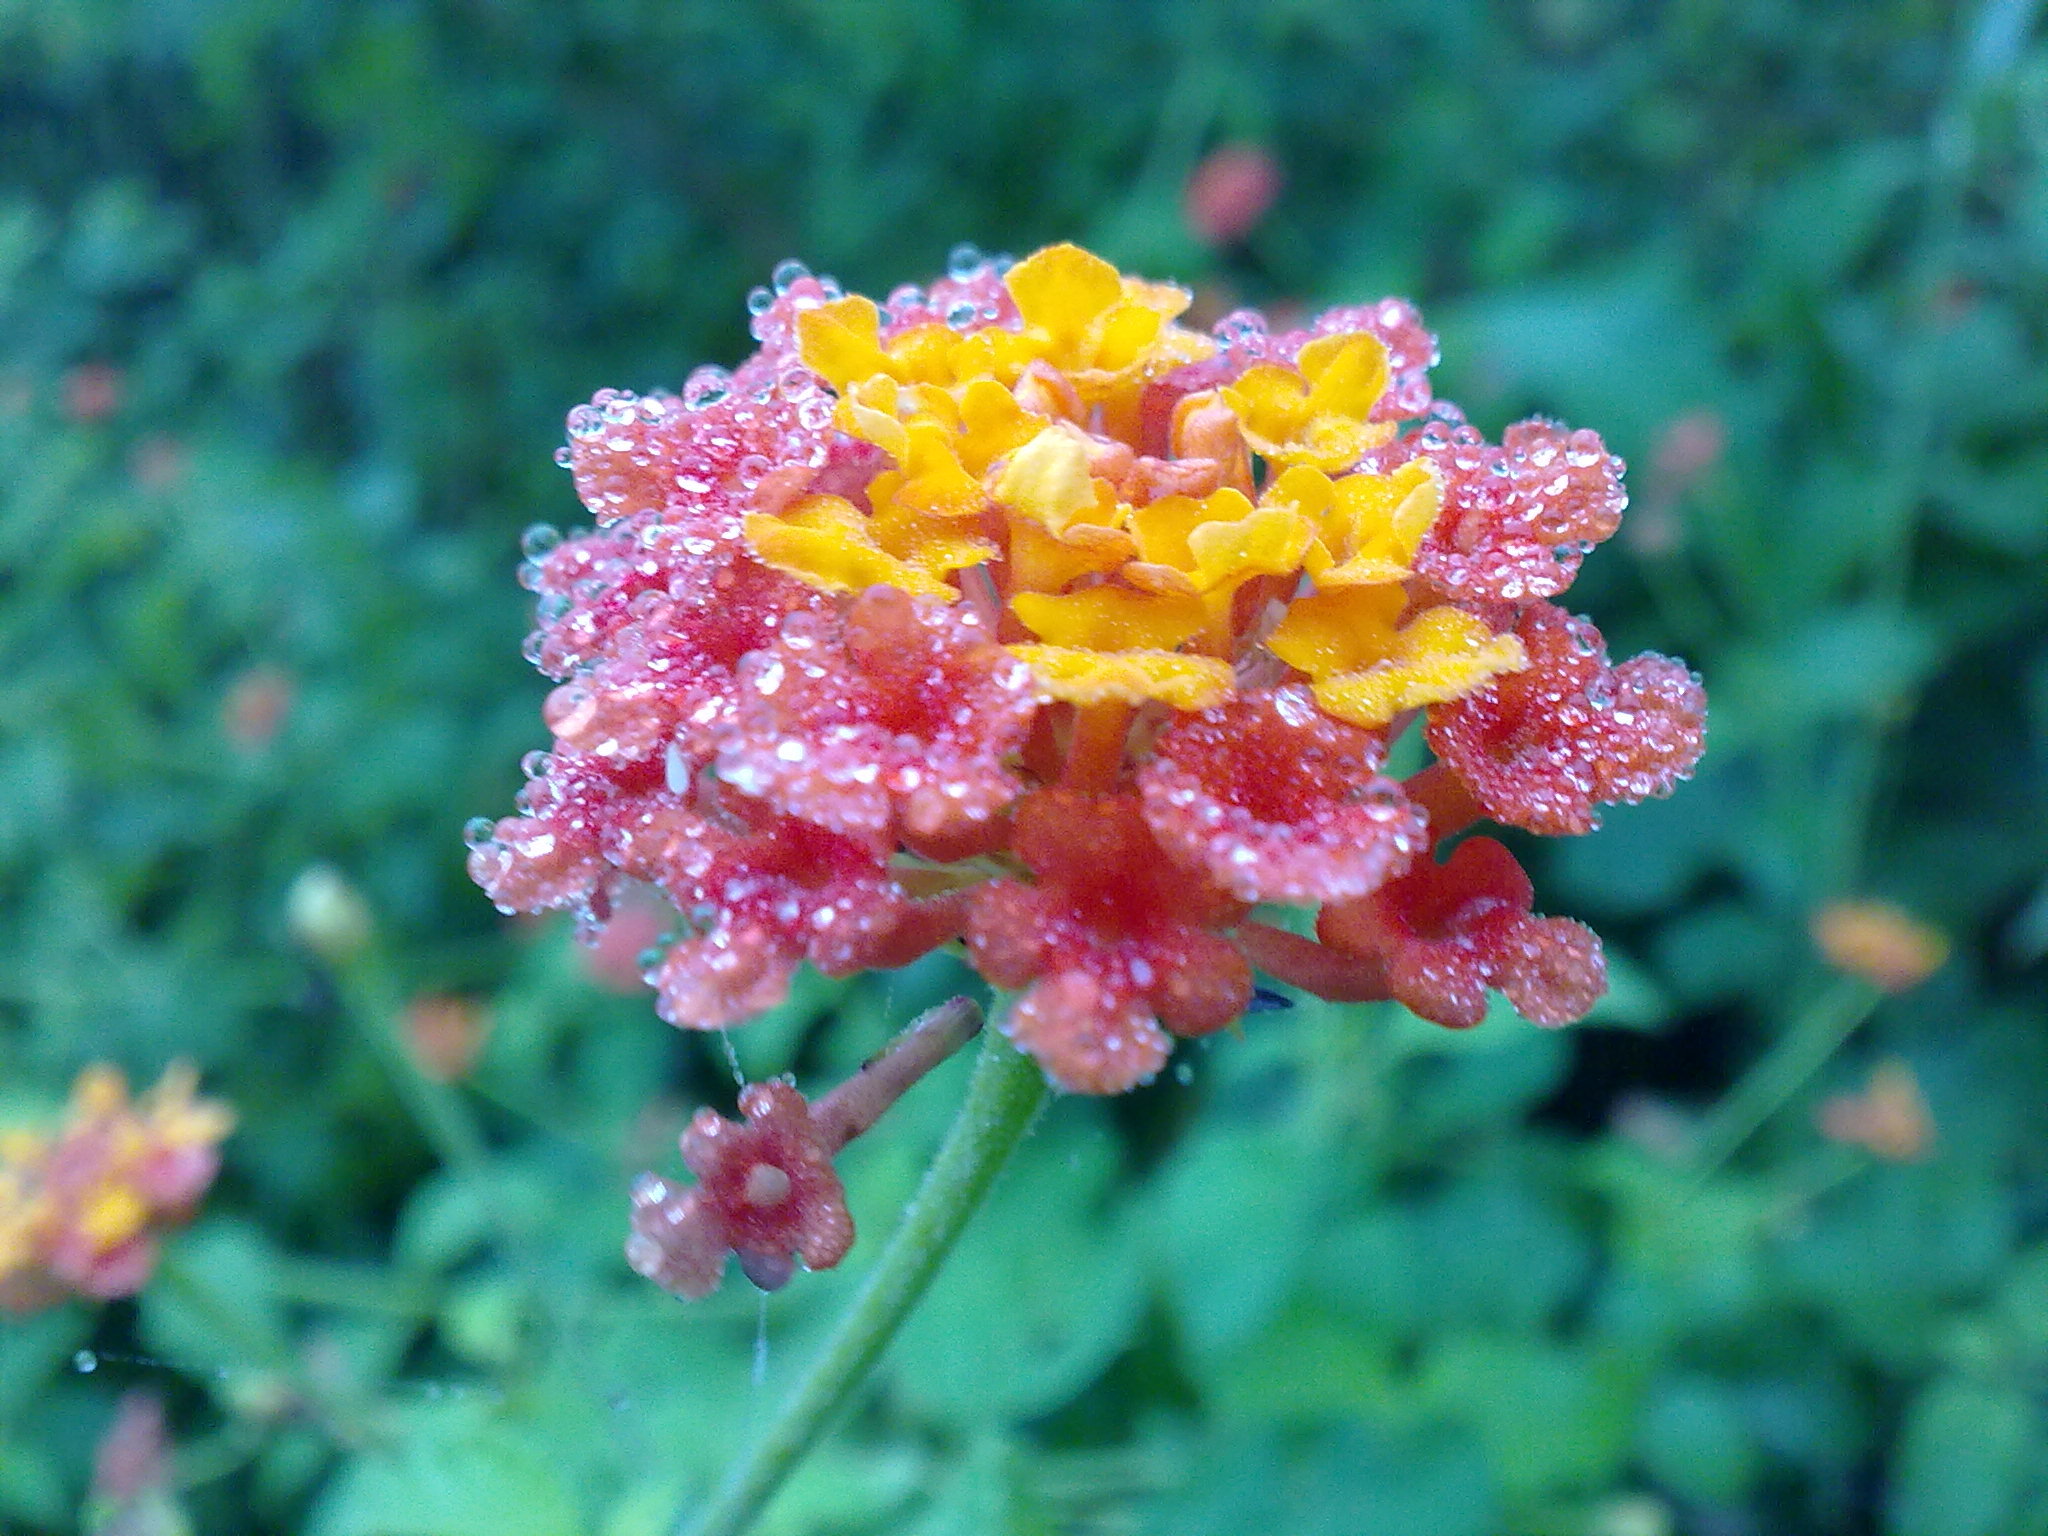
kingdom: Plantae
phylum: Tracheophyta
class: Magnoliopsida
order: Lamiales
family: Verbenaceae
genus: Lantana
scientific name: Lantana camara
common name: Lantana
